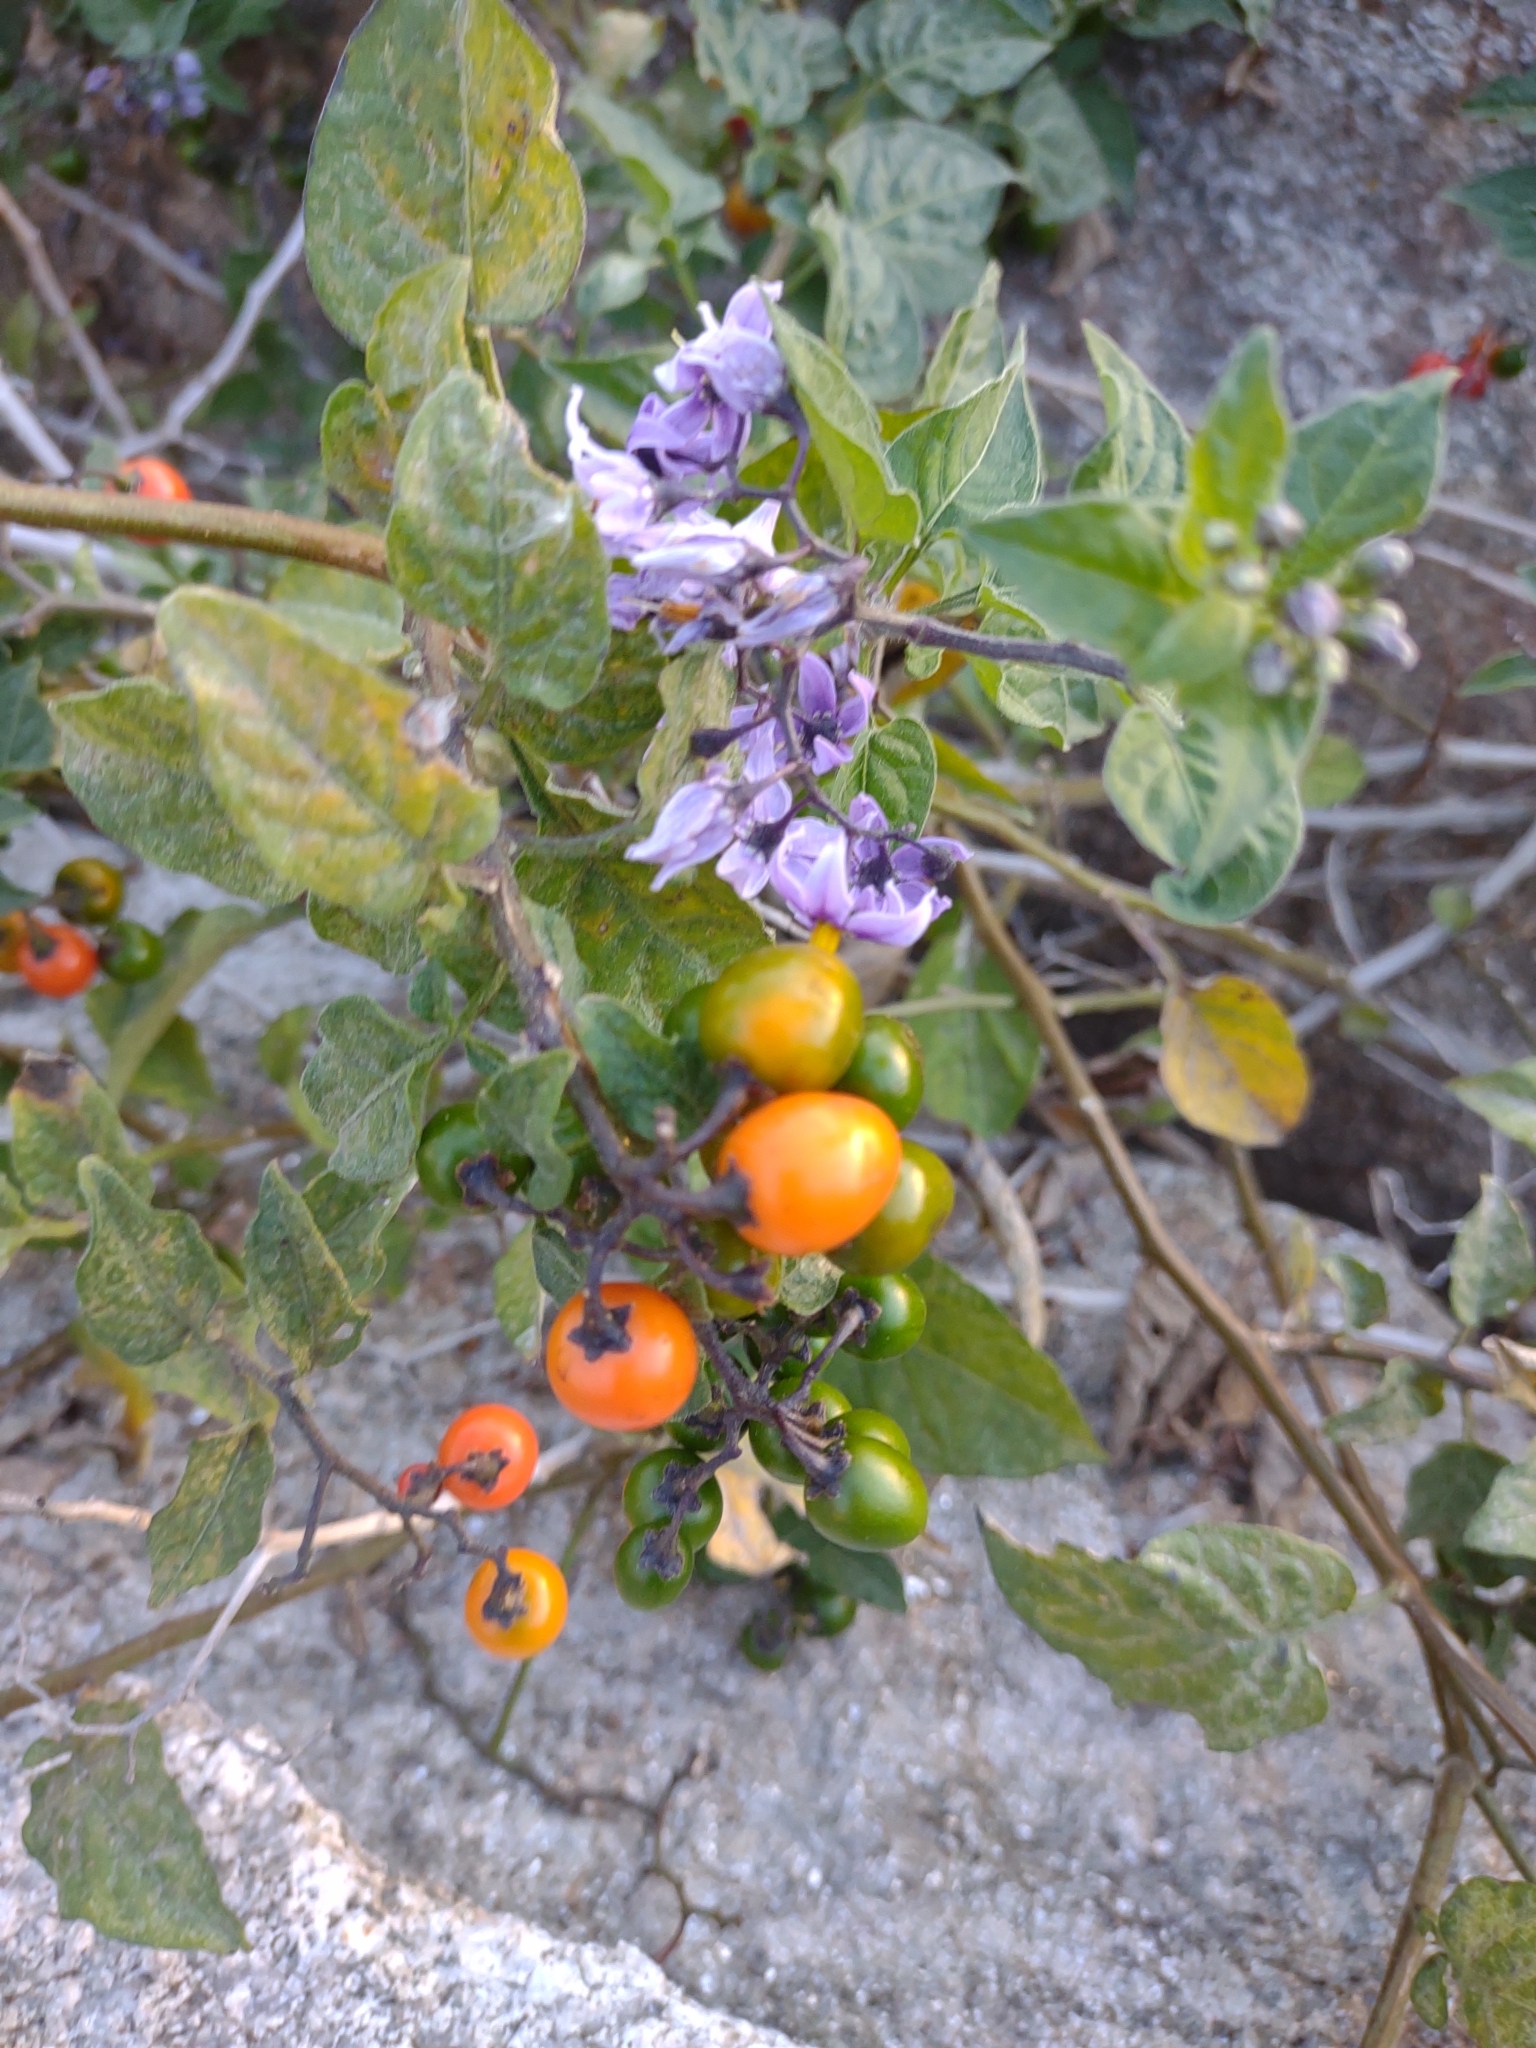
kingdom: Plantae
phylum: Tracheophyta
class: Magnoliopsida
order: Solanales
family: Solanaceae
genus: Solanum
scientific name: Solanum dulcamara
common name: Climbing nightshade
